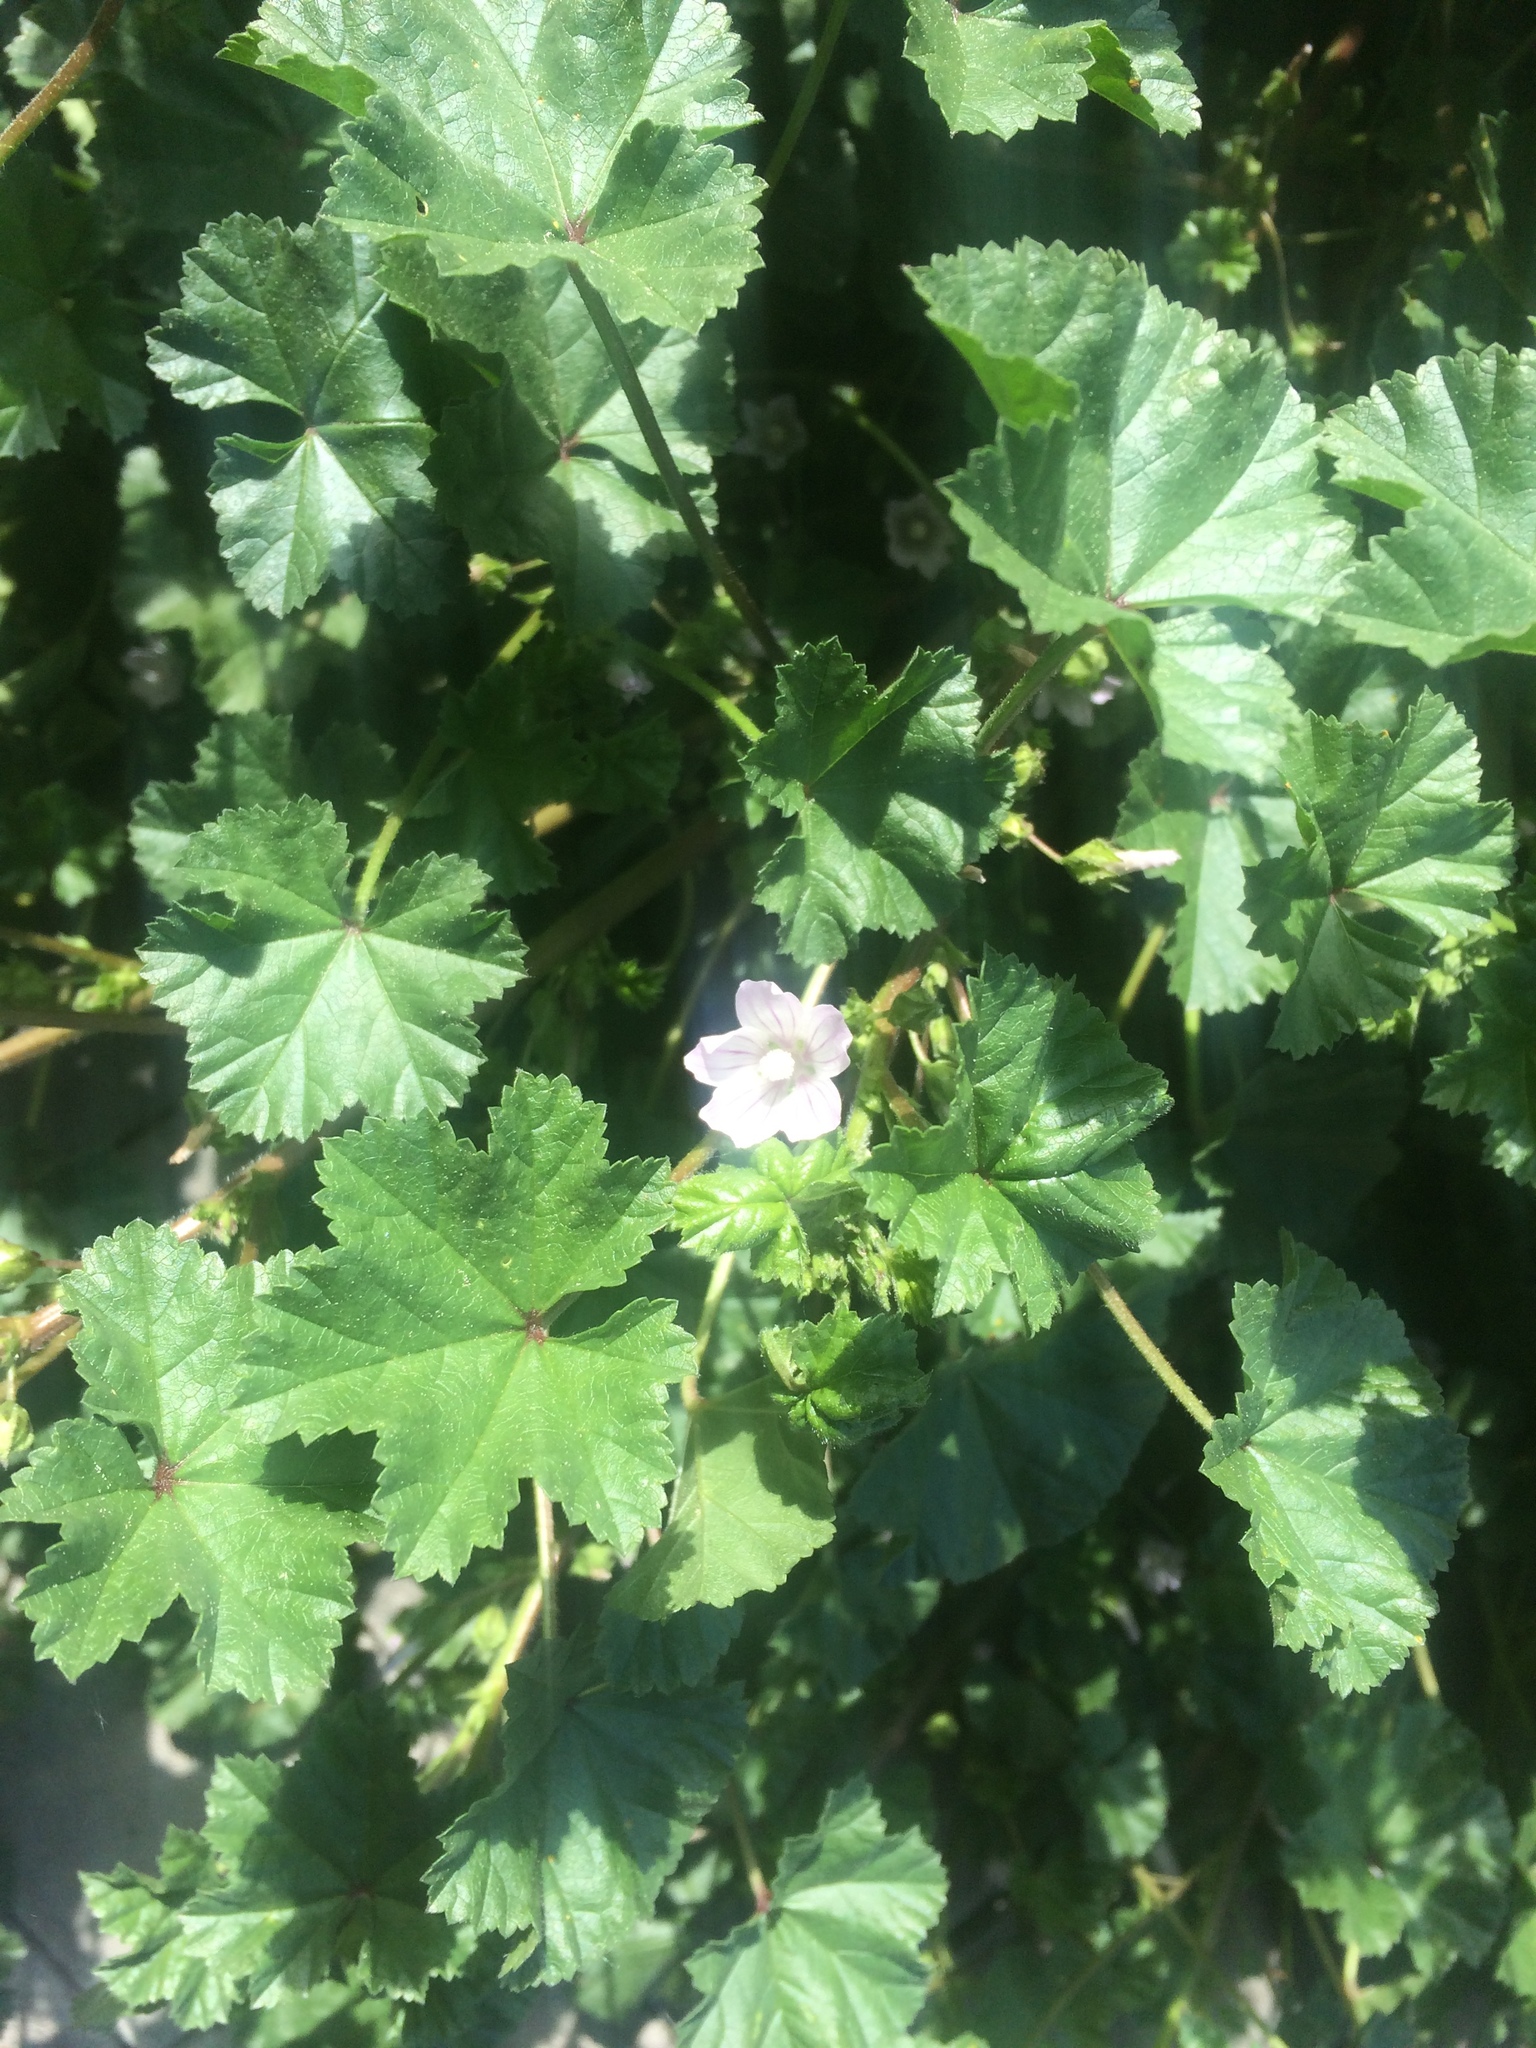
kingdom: Plantae
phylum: Tracheophyta
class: Magnoliopsida
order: Malvales
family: Malvaceae
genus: Malva
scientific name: Malva neglecta
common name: Common mallow
